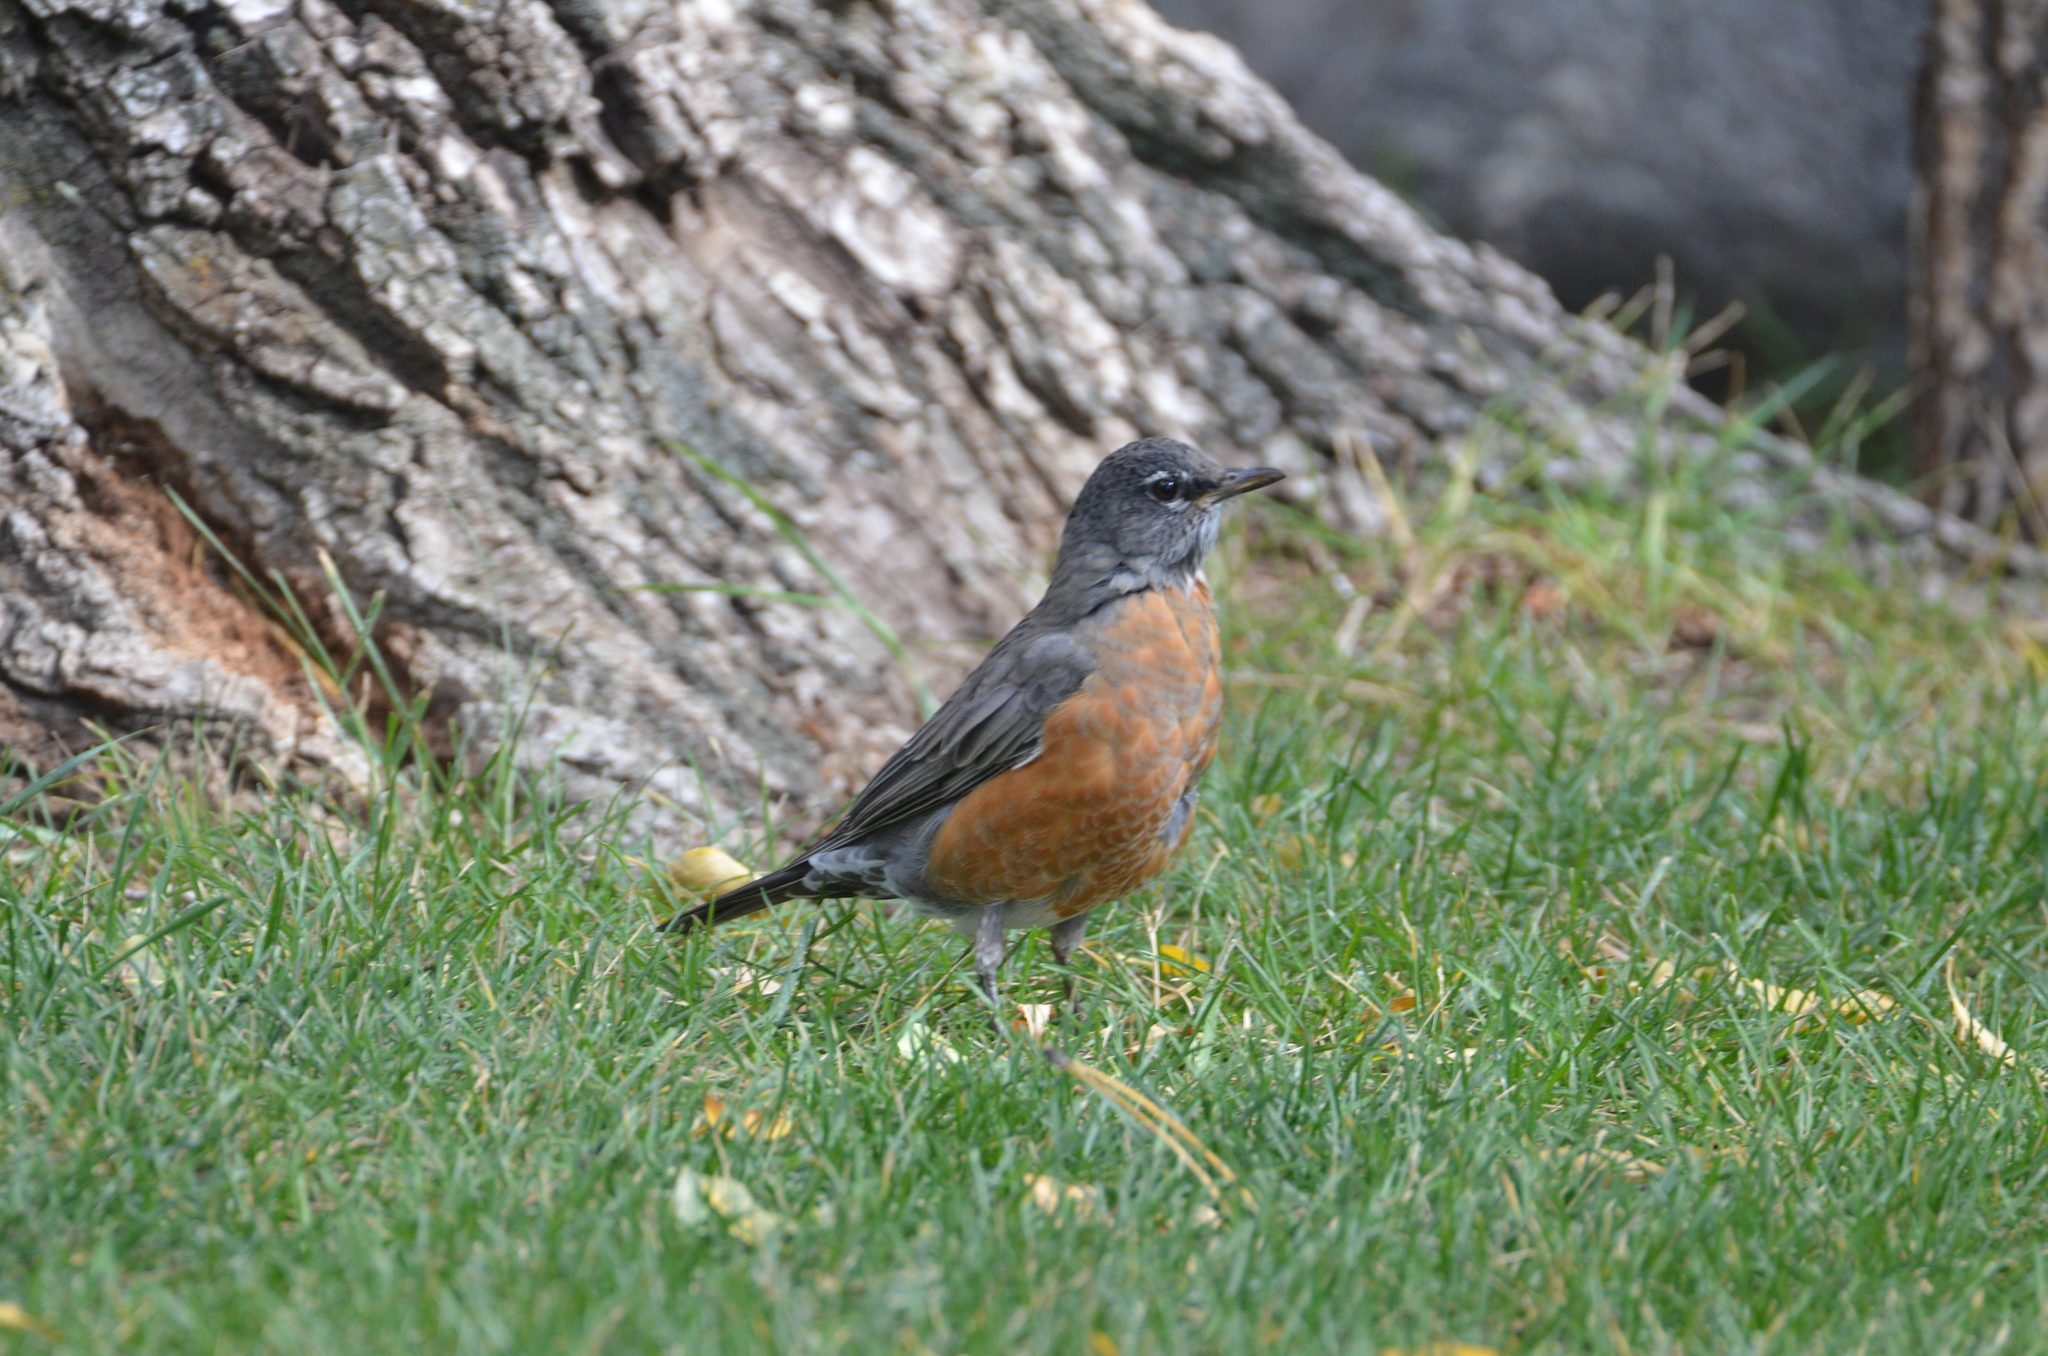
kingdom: Animalia
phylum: Chordata
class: Aves
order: Passeriformes
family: Turdidae
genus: Turdus
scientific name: Turdus migratorius
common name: American robin
